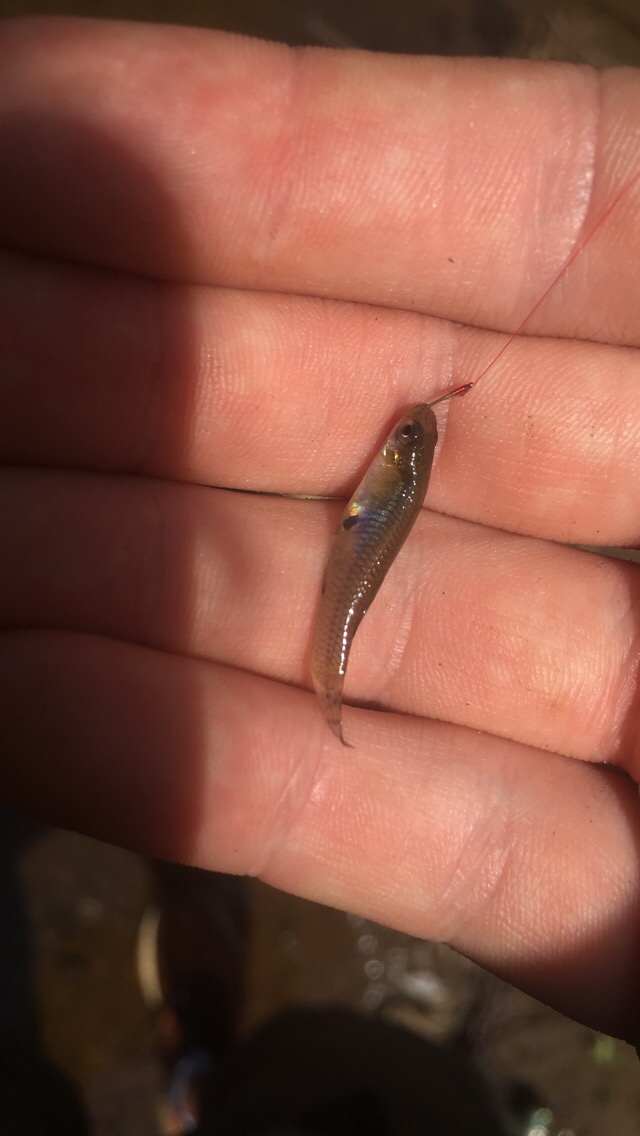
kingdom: Animalia
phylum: Chordata
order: Cyprinodontiformes
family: Poeciliidae
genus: Gambusia
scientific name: Gambusia holbrooki
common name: Eastern mosquitofish
